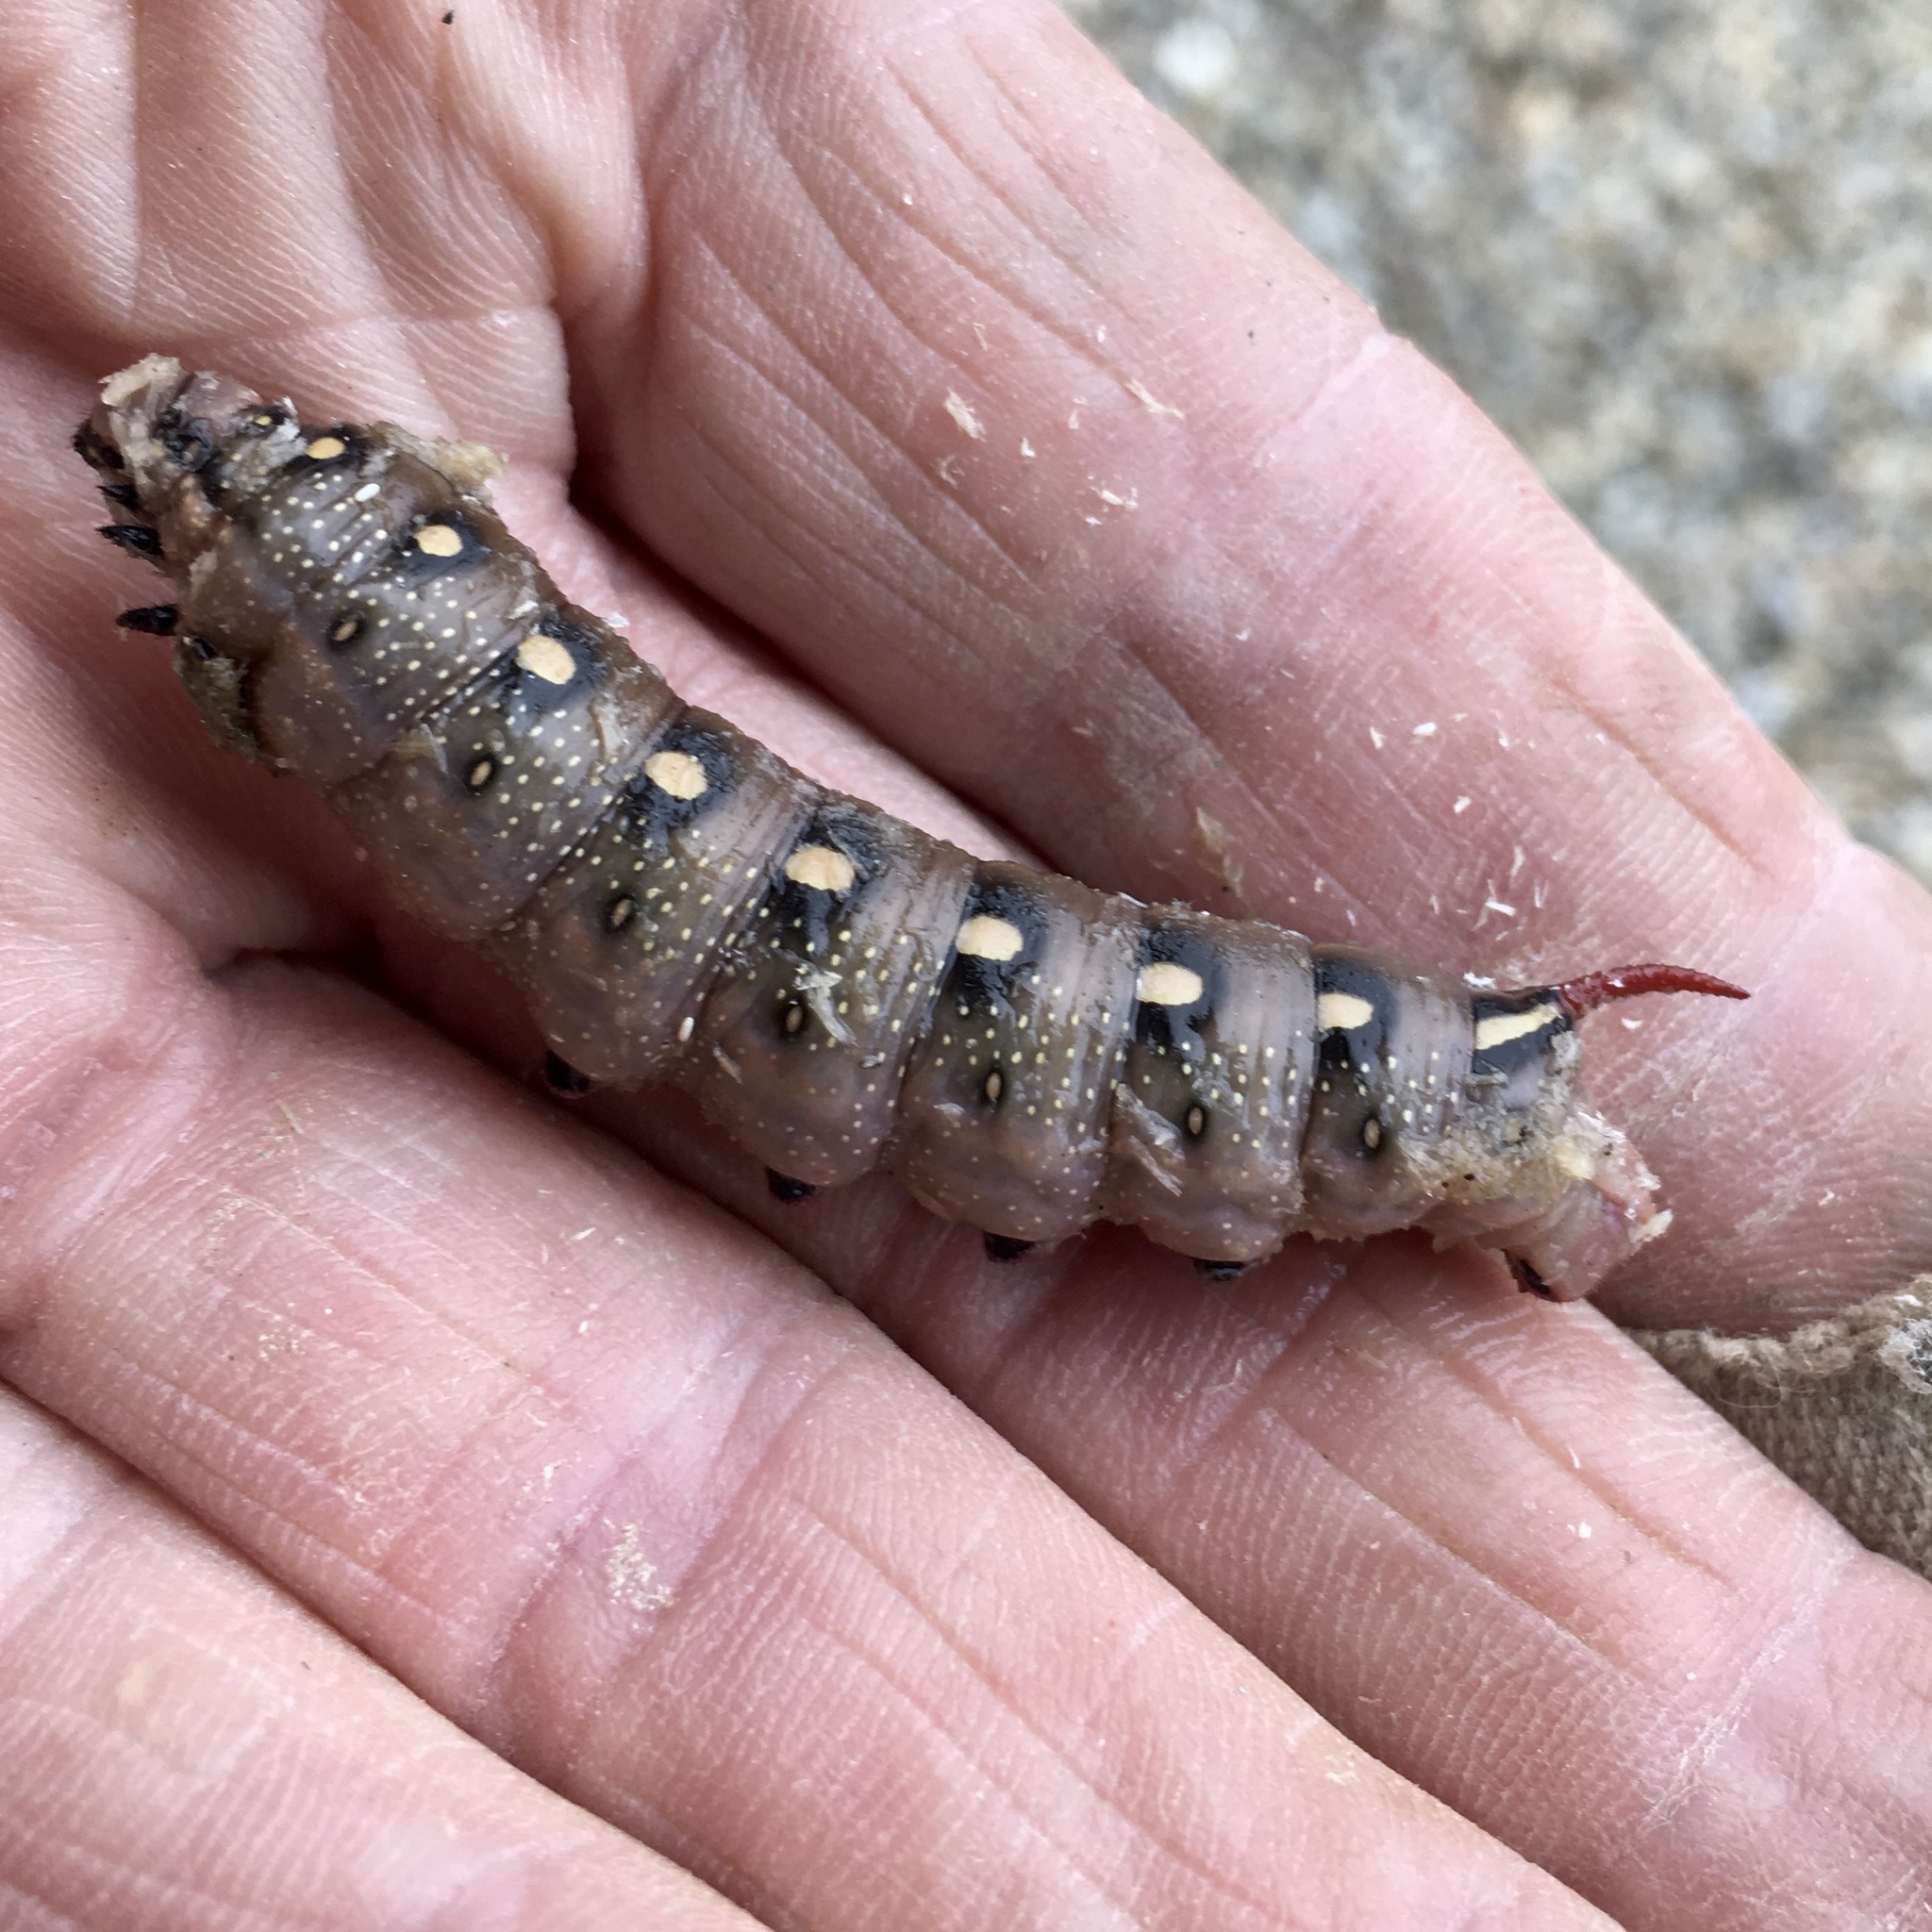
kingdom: Animalia
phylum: Arthropoda
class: Insecta
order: Lepidoptera
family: Sphingidae
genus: Hyles
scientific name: Hyles gallii
